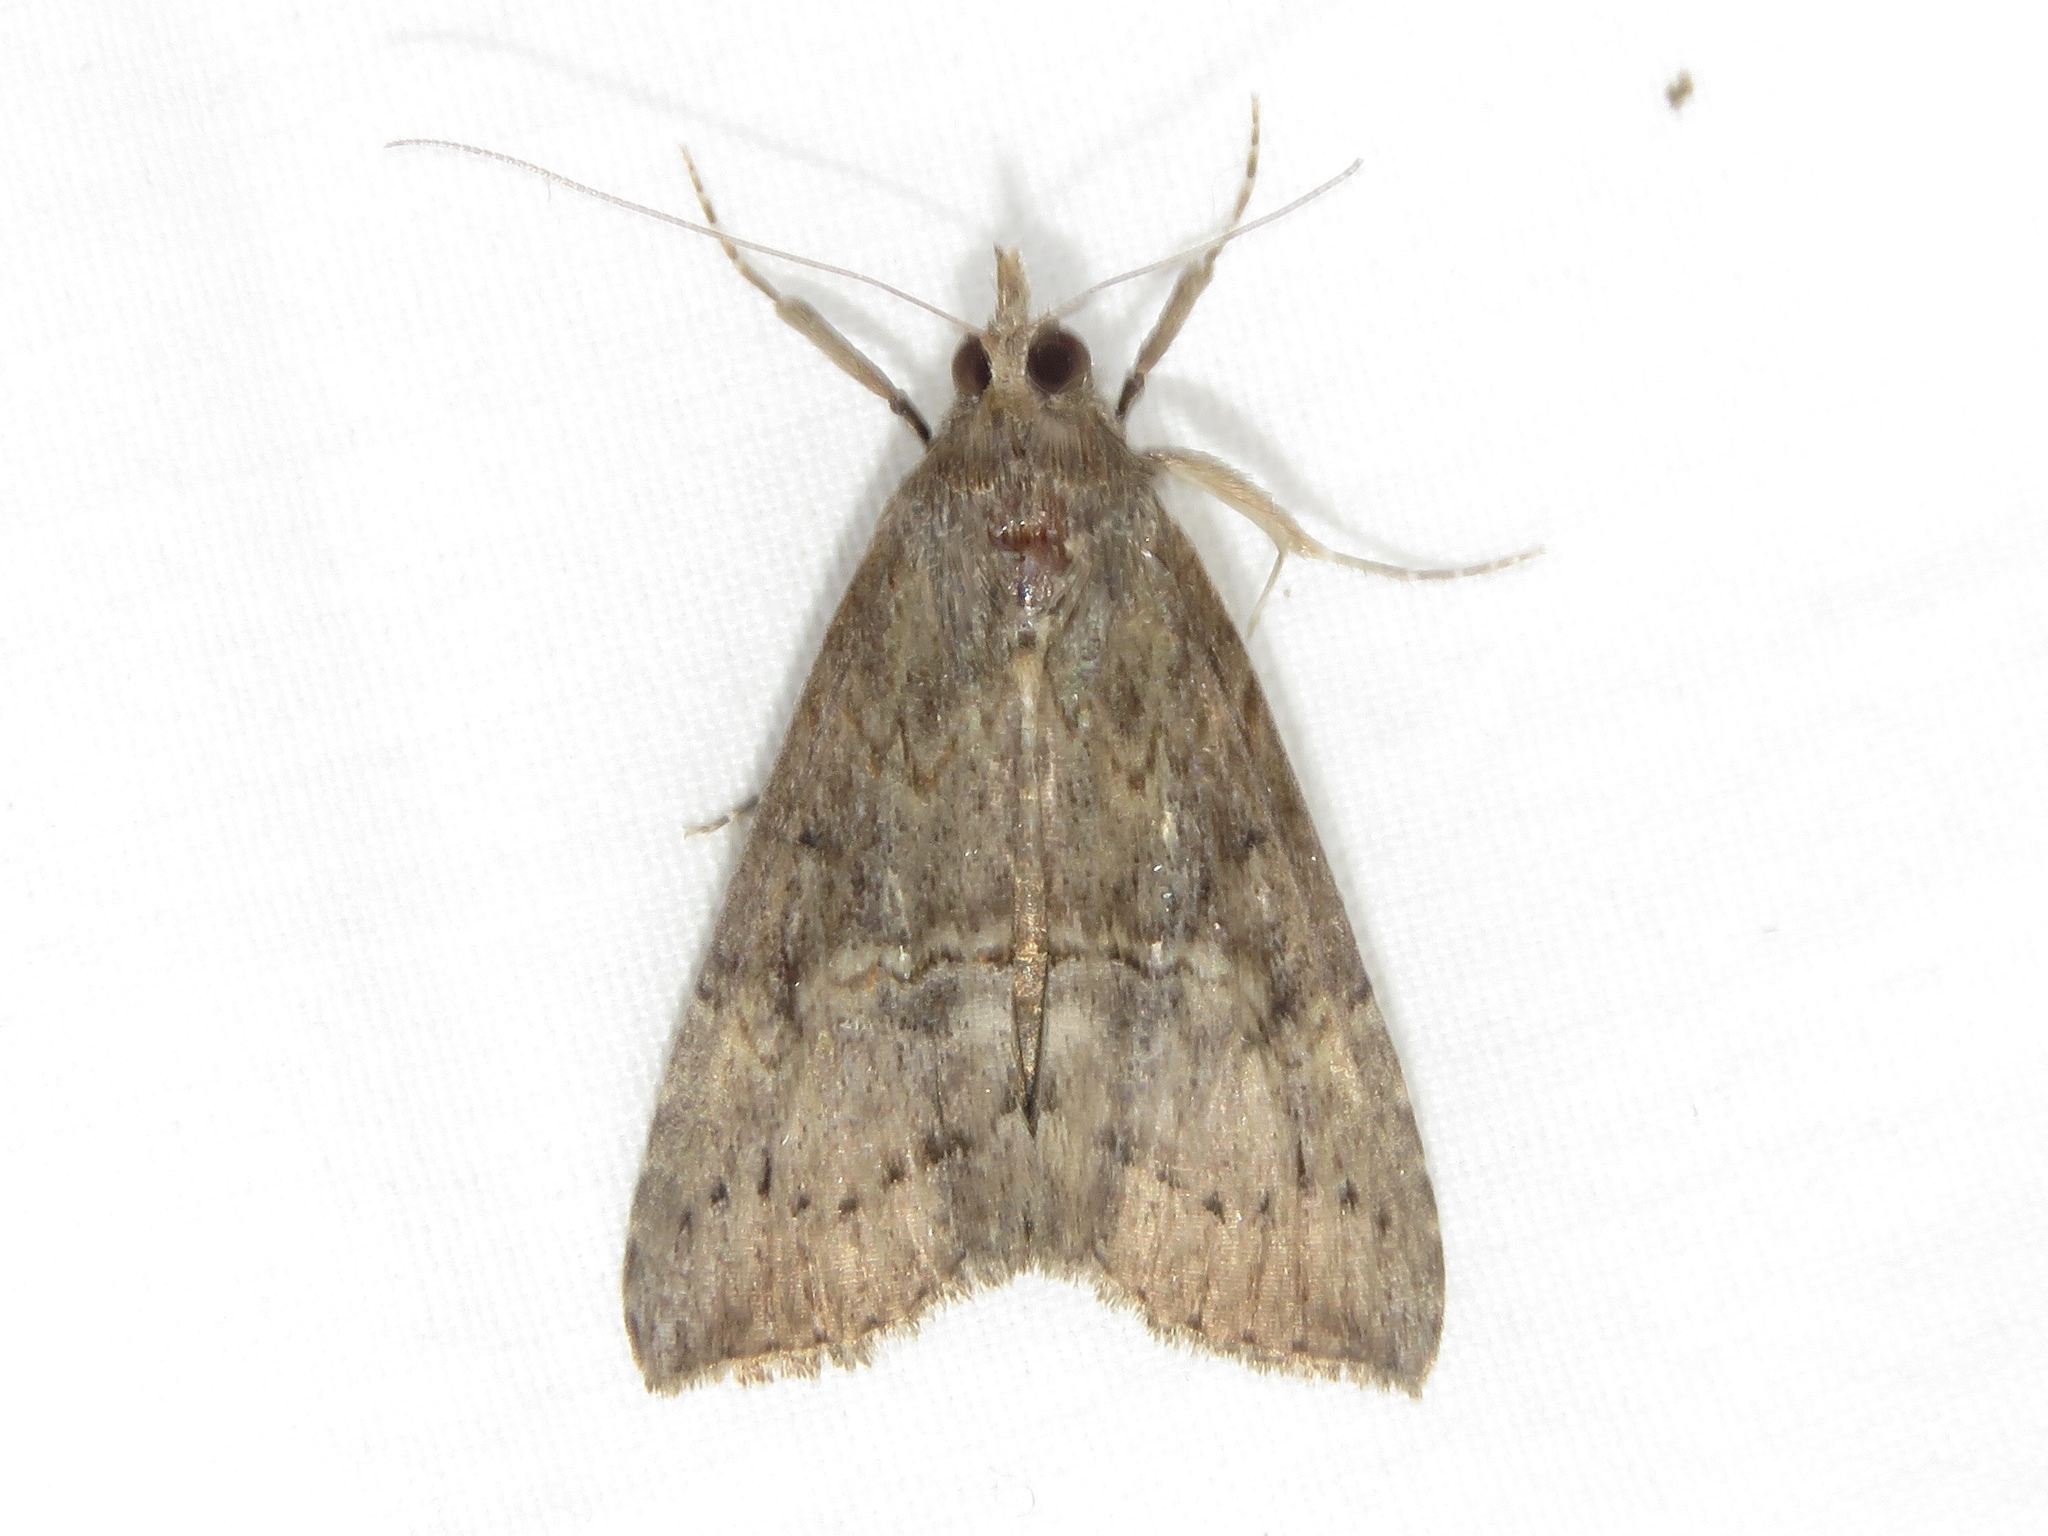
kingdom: Animalia
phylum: Arthropoda
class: Insecta
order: Lepidoptera
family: Erebidae
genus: Hypena
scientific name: Hypena scabra
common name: Green cloverworm
